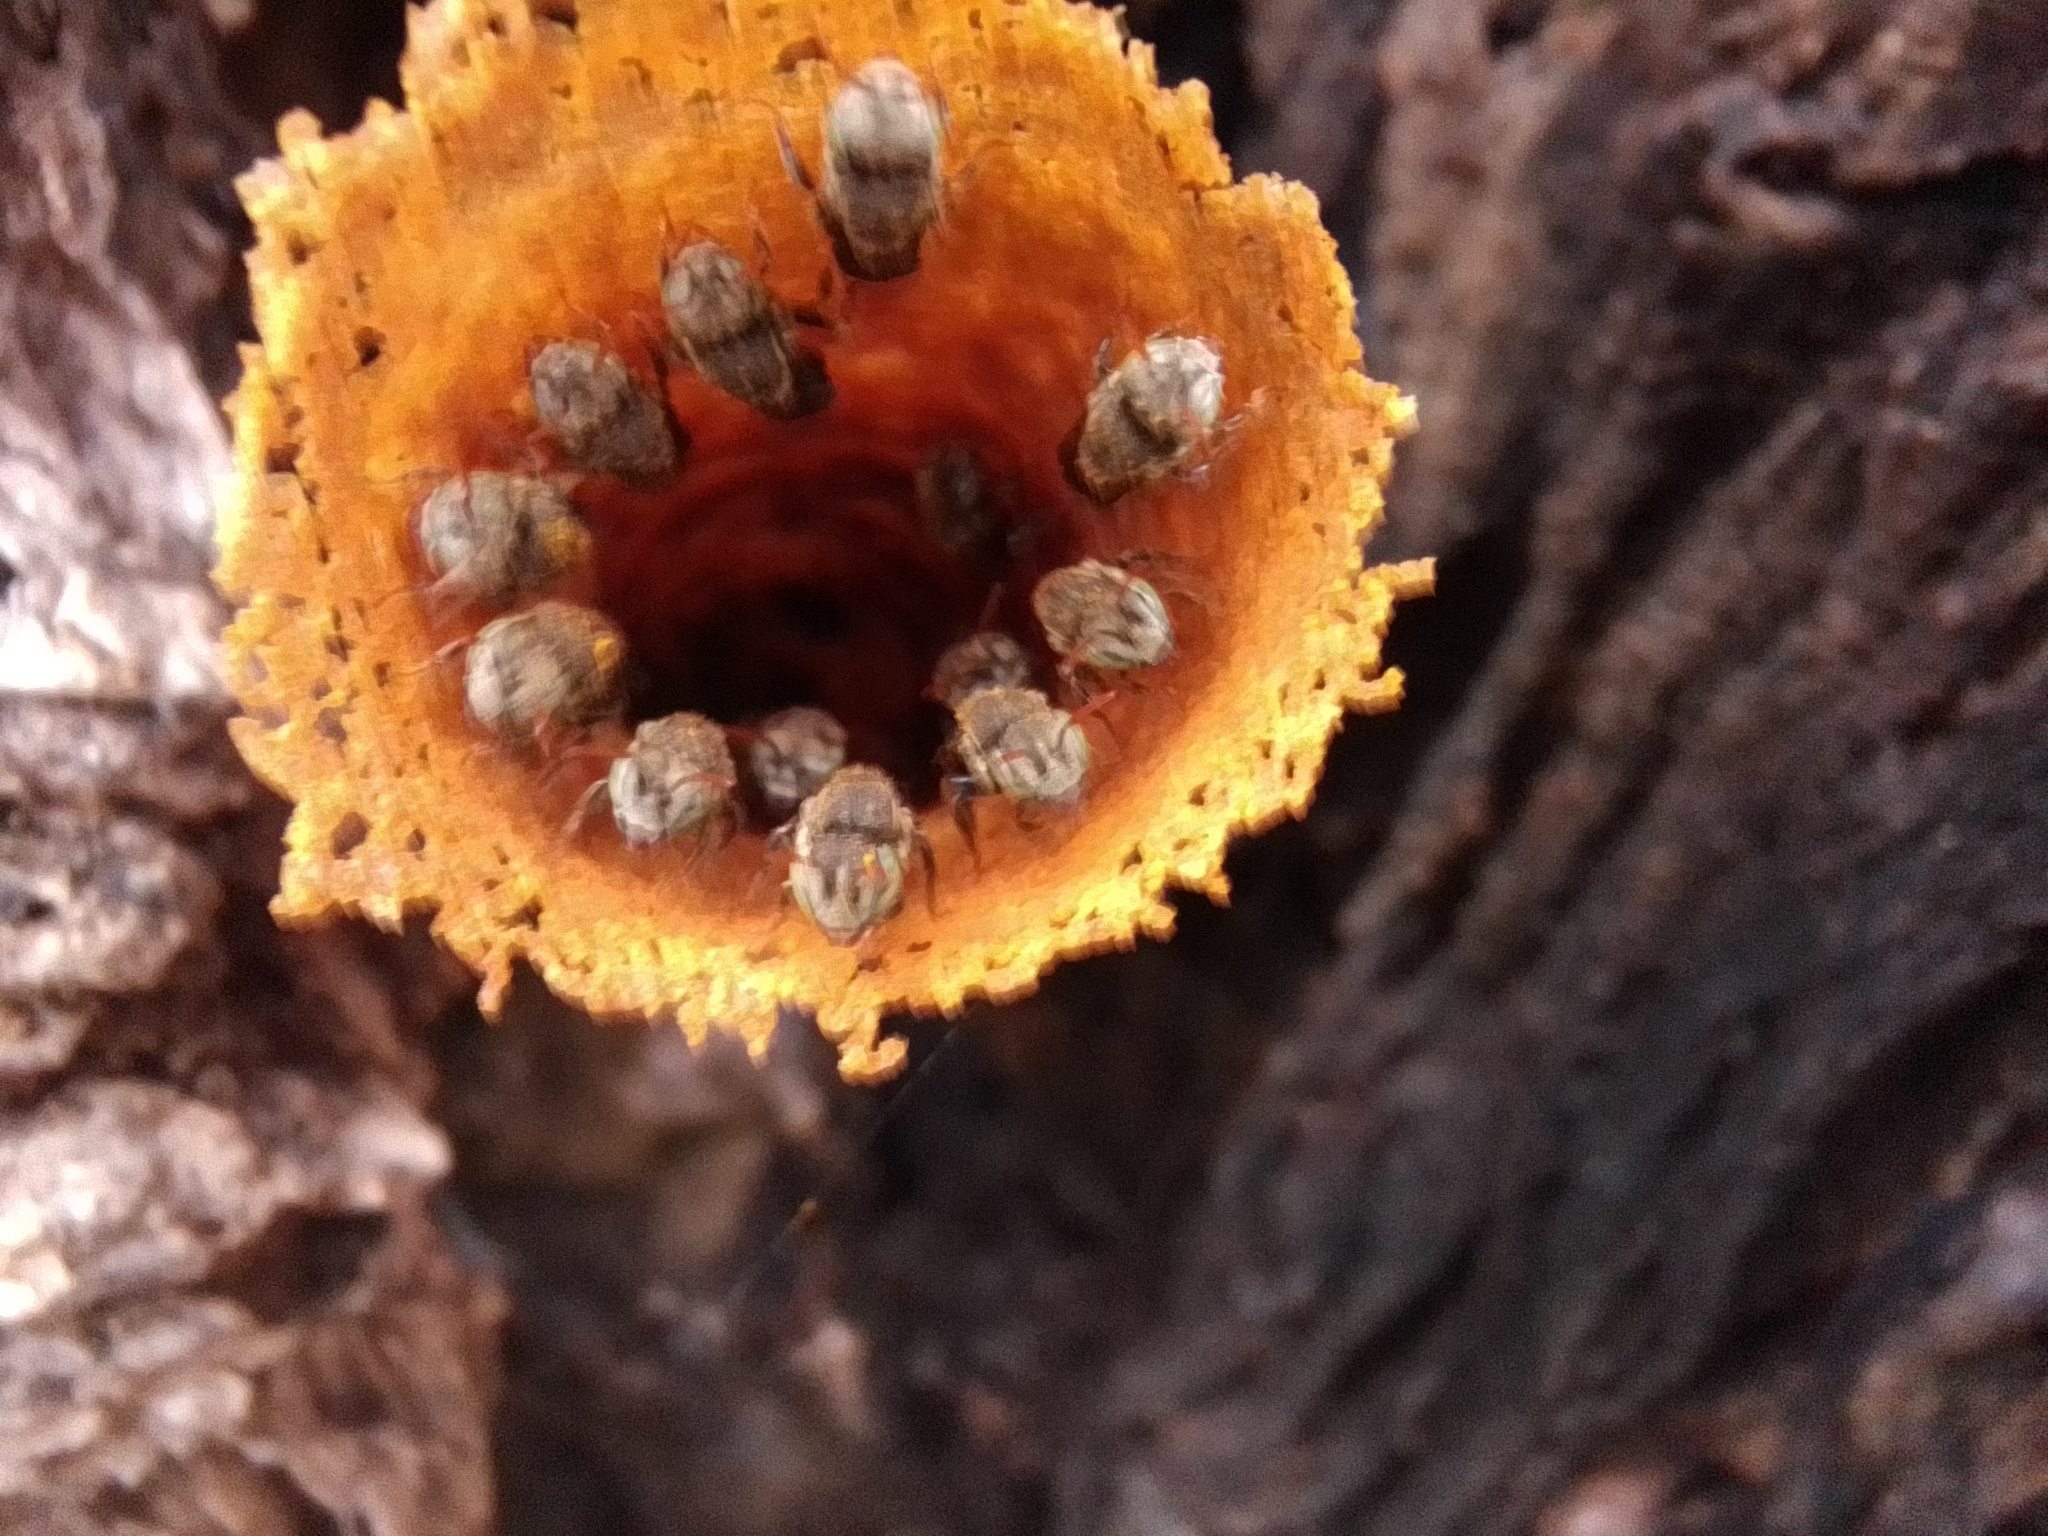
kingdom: Animalia
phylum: Arthropoda
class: Insecta
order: Hymenoptera
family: Apidae
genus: Nannotrigona
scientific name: Nannotrigona perilampoides
